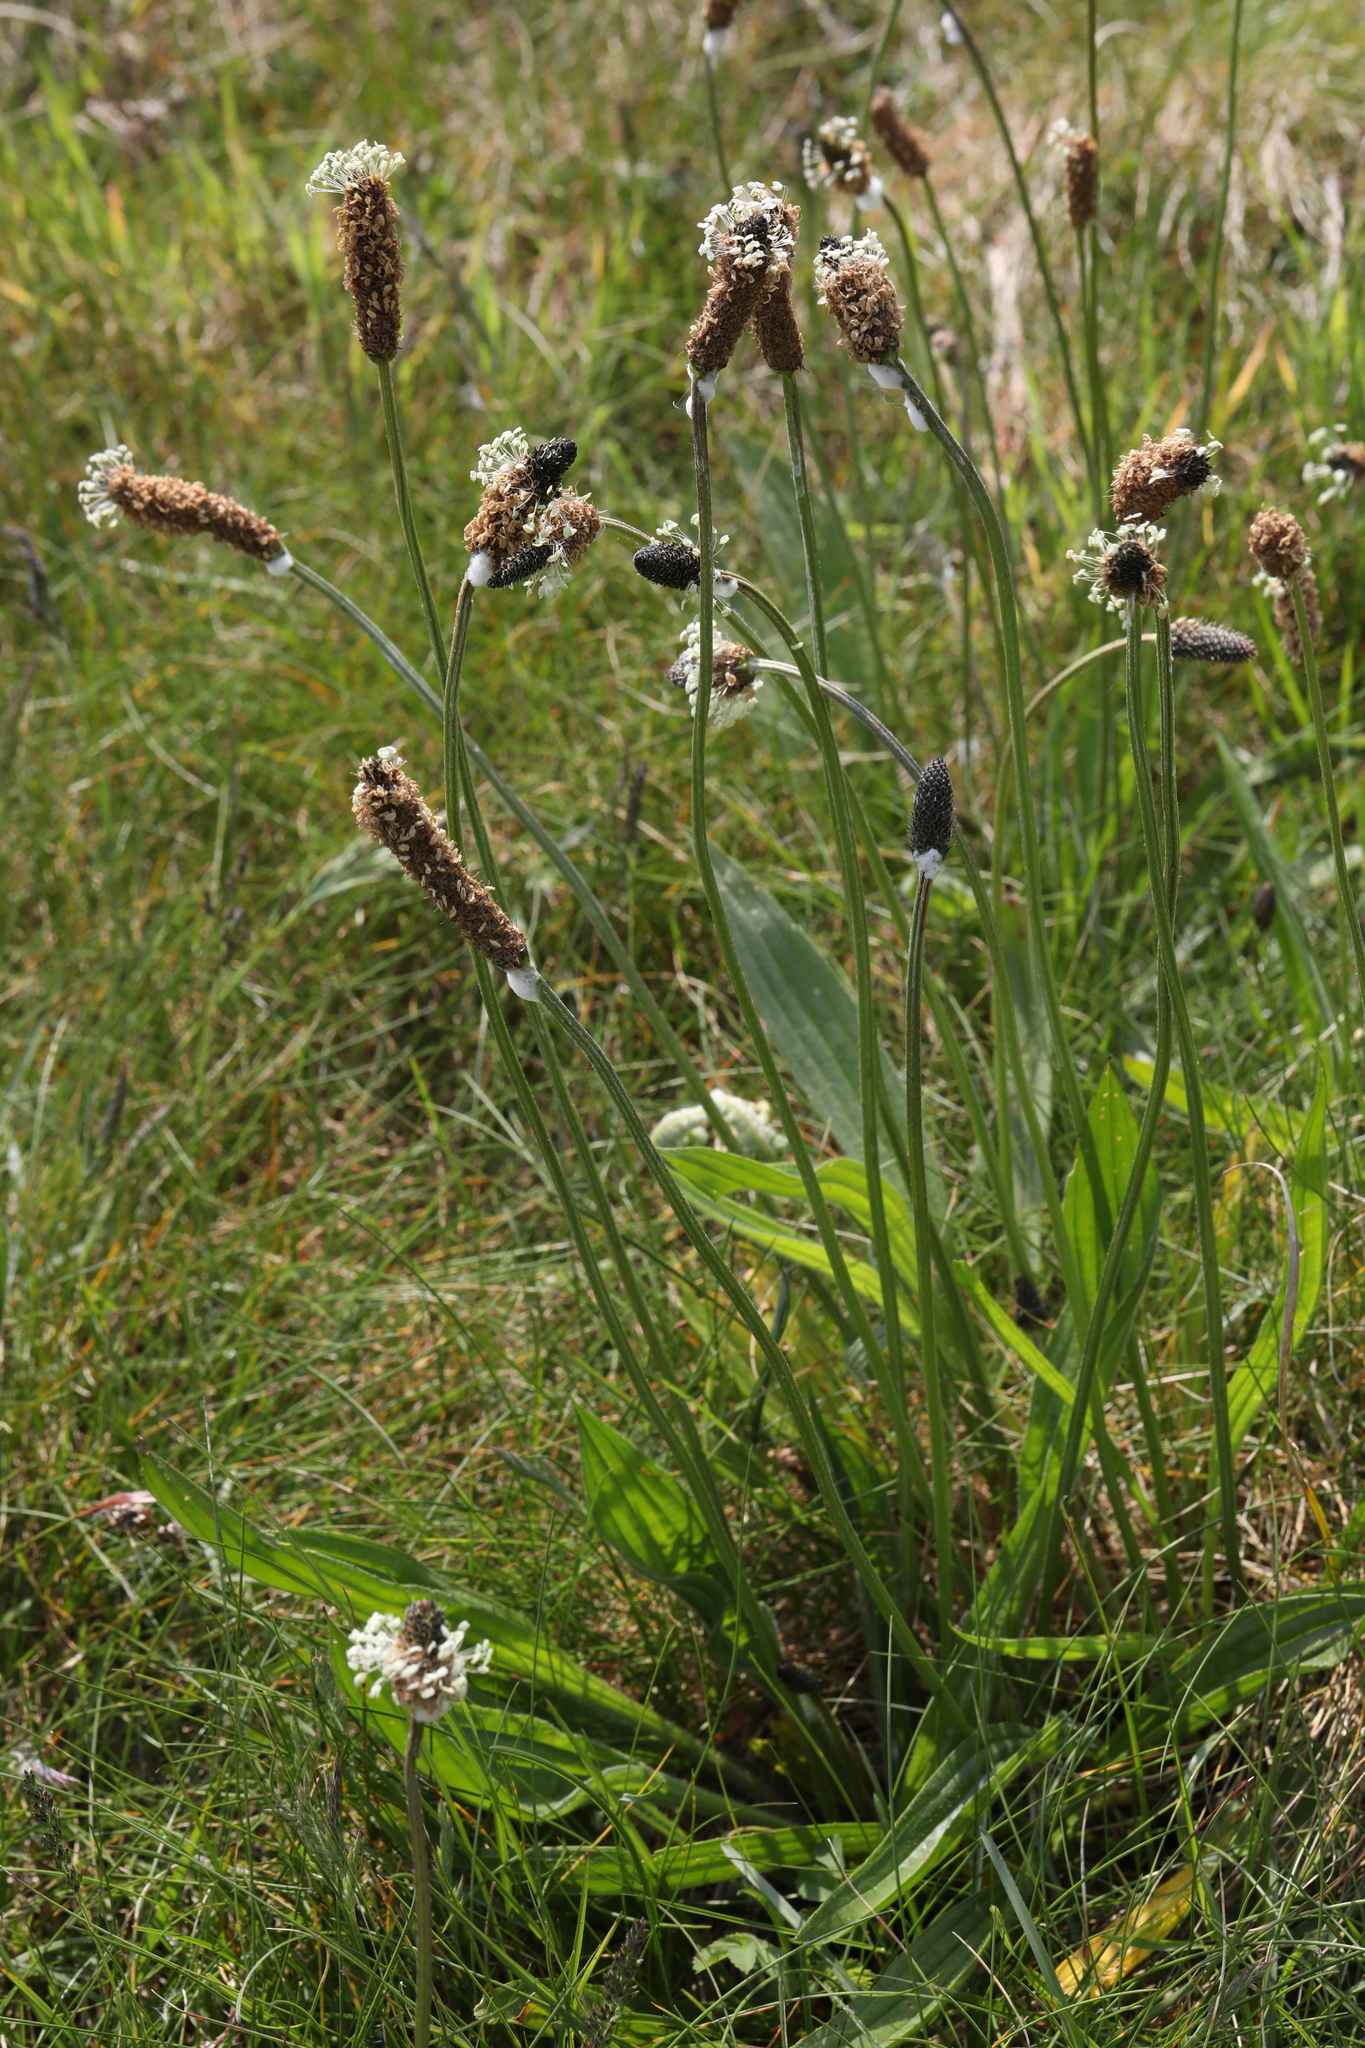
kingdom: Plantae
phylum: Tracheophyta
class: Magnoliopsida
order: Lamiales
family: Plantaginaceae
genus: Plantago
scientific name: Plantago lanceolata
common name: Ribwort plantain
